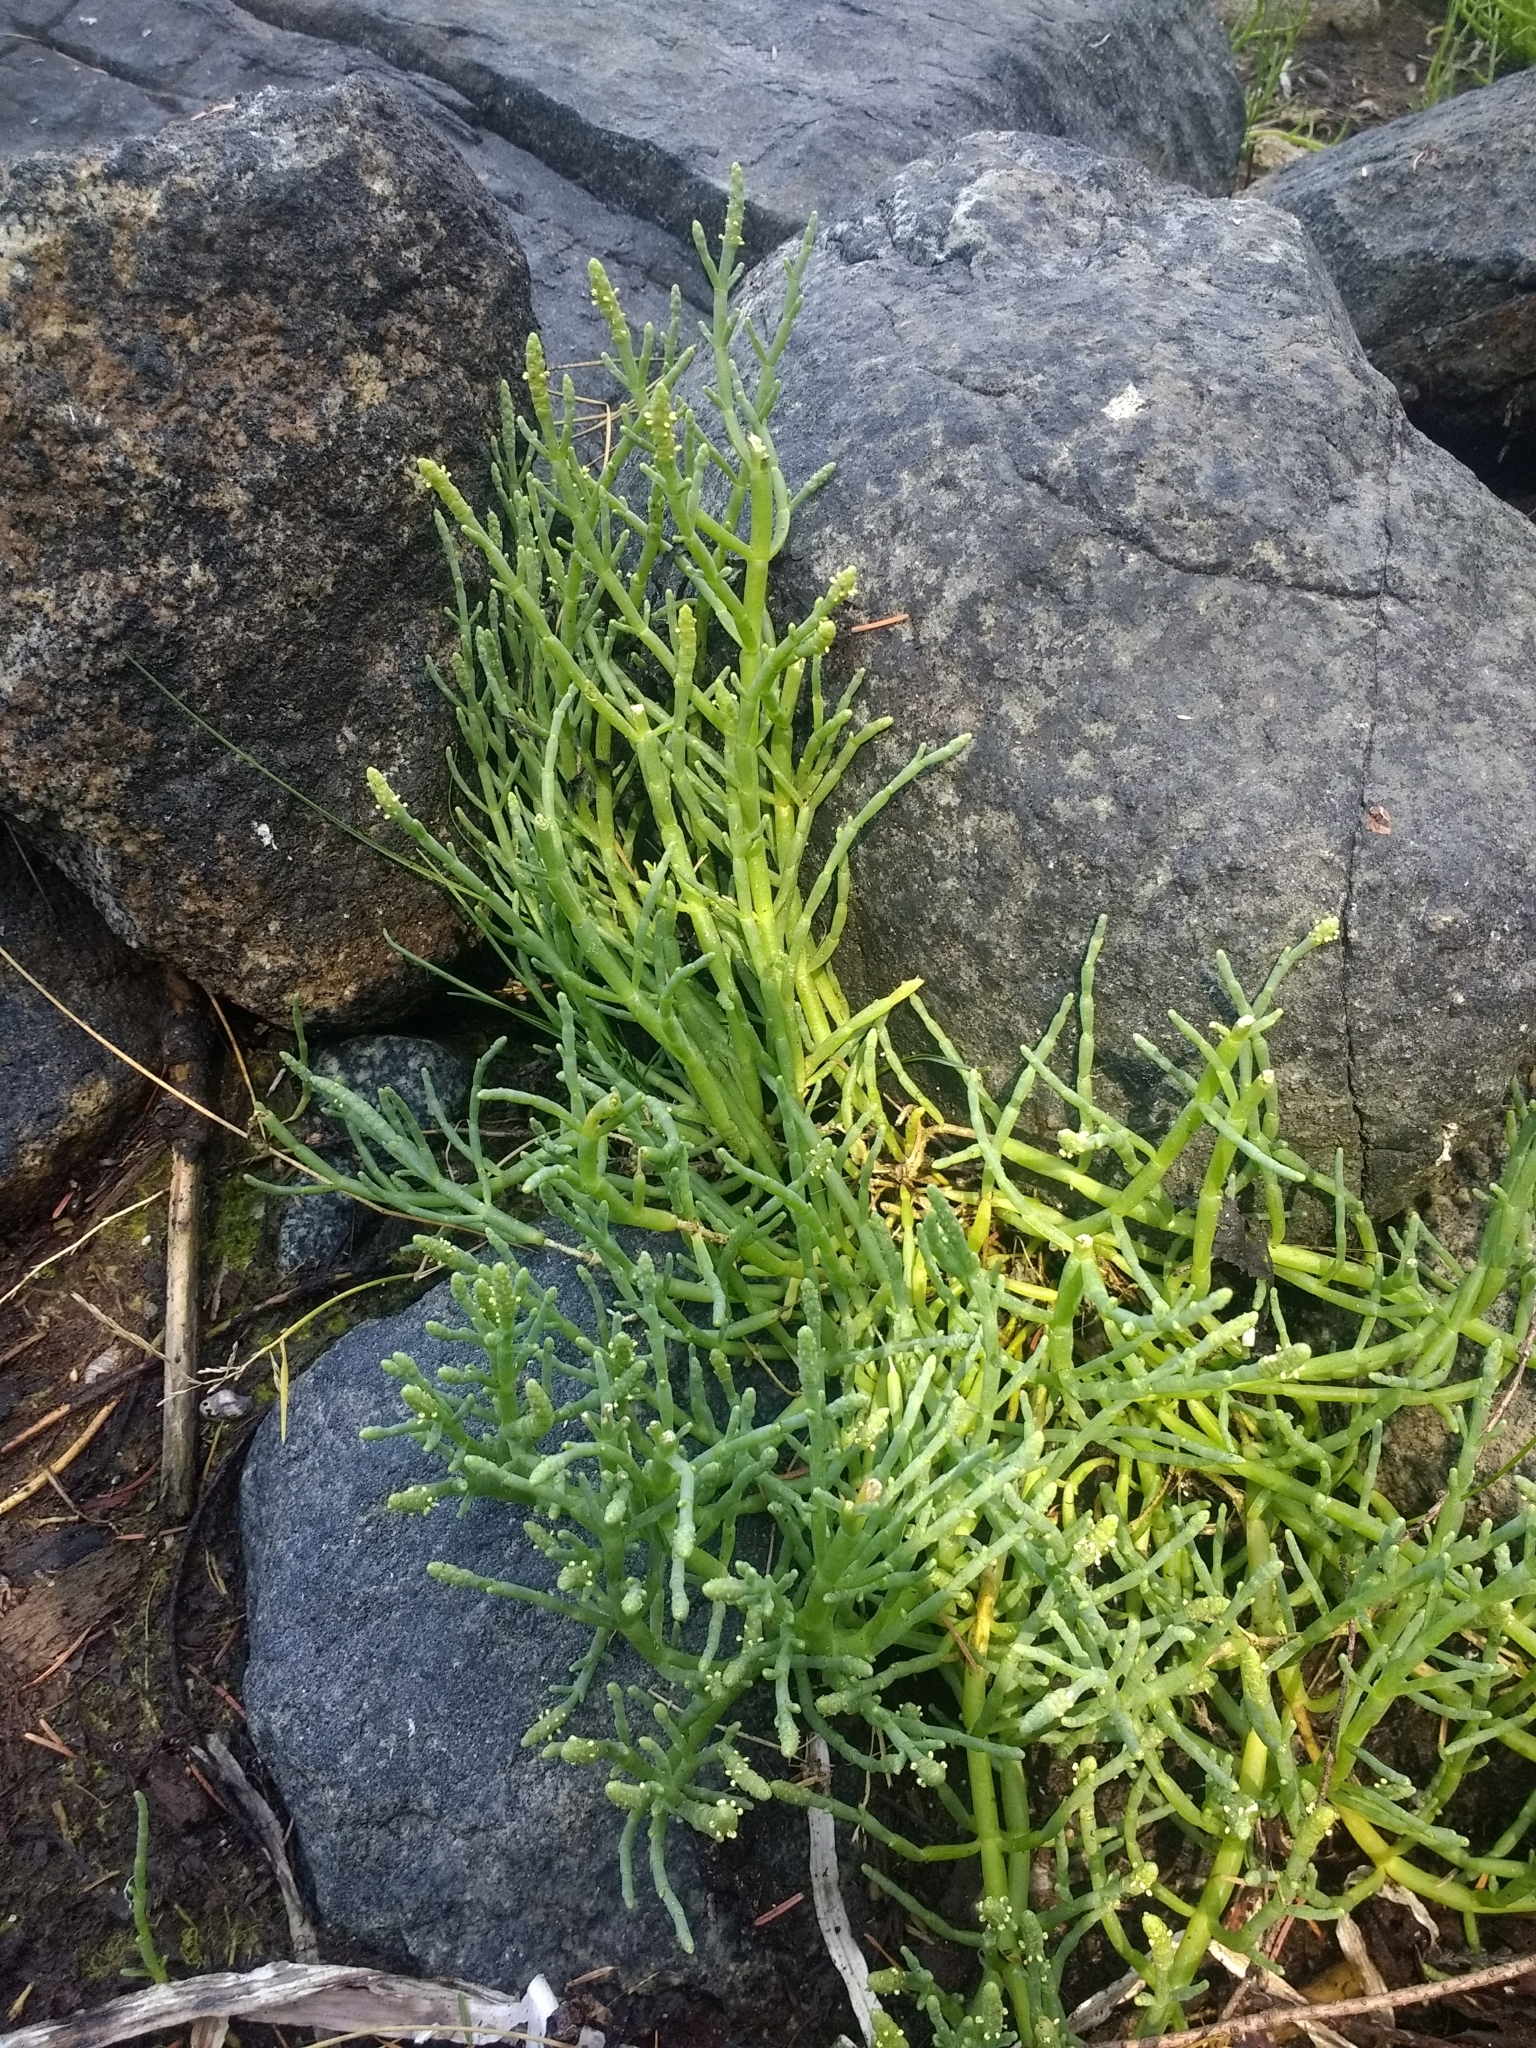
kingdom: Plantae
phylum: Tracheophyta
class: Magnoliopsida
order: Caryophyllales
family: Amaranthaceae
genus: Salicornia
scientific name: Salicornia pacifica
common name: Pacific glasswort
